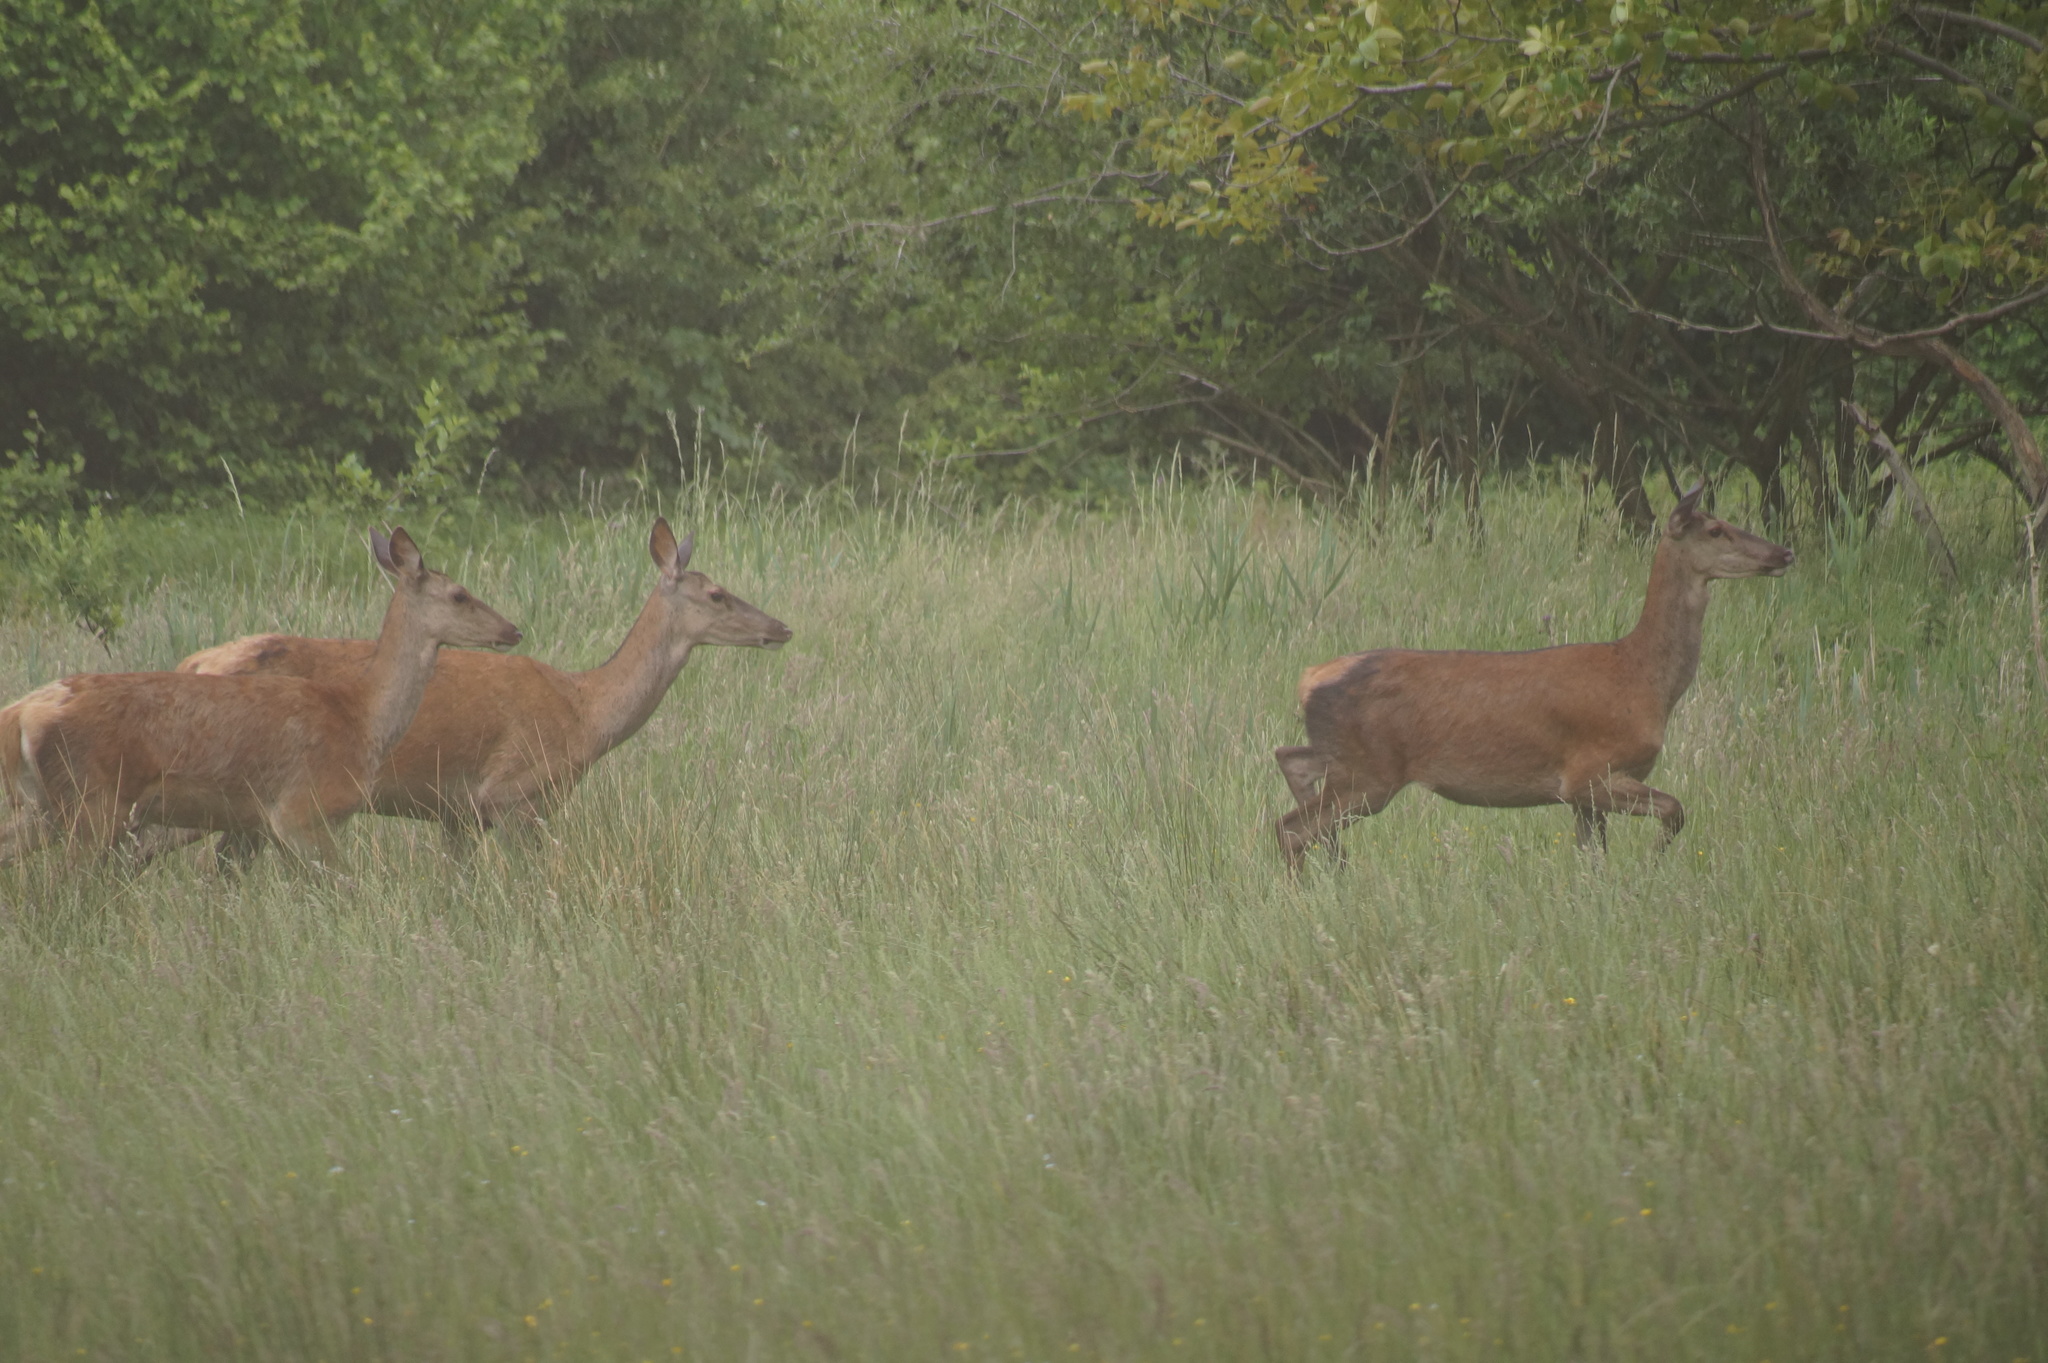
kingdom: Animalia
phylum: Chordata
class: Mammalia
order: Artiodactyla
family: Cervidae
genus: Cervus
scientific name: Cervus elaphus
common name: Red deer
